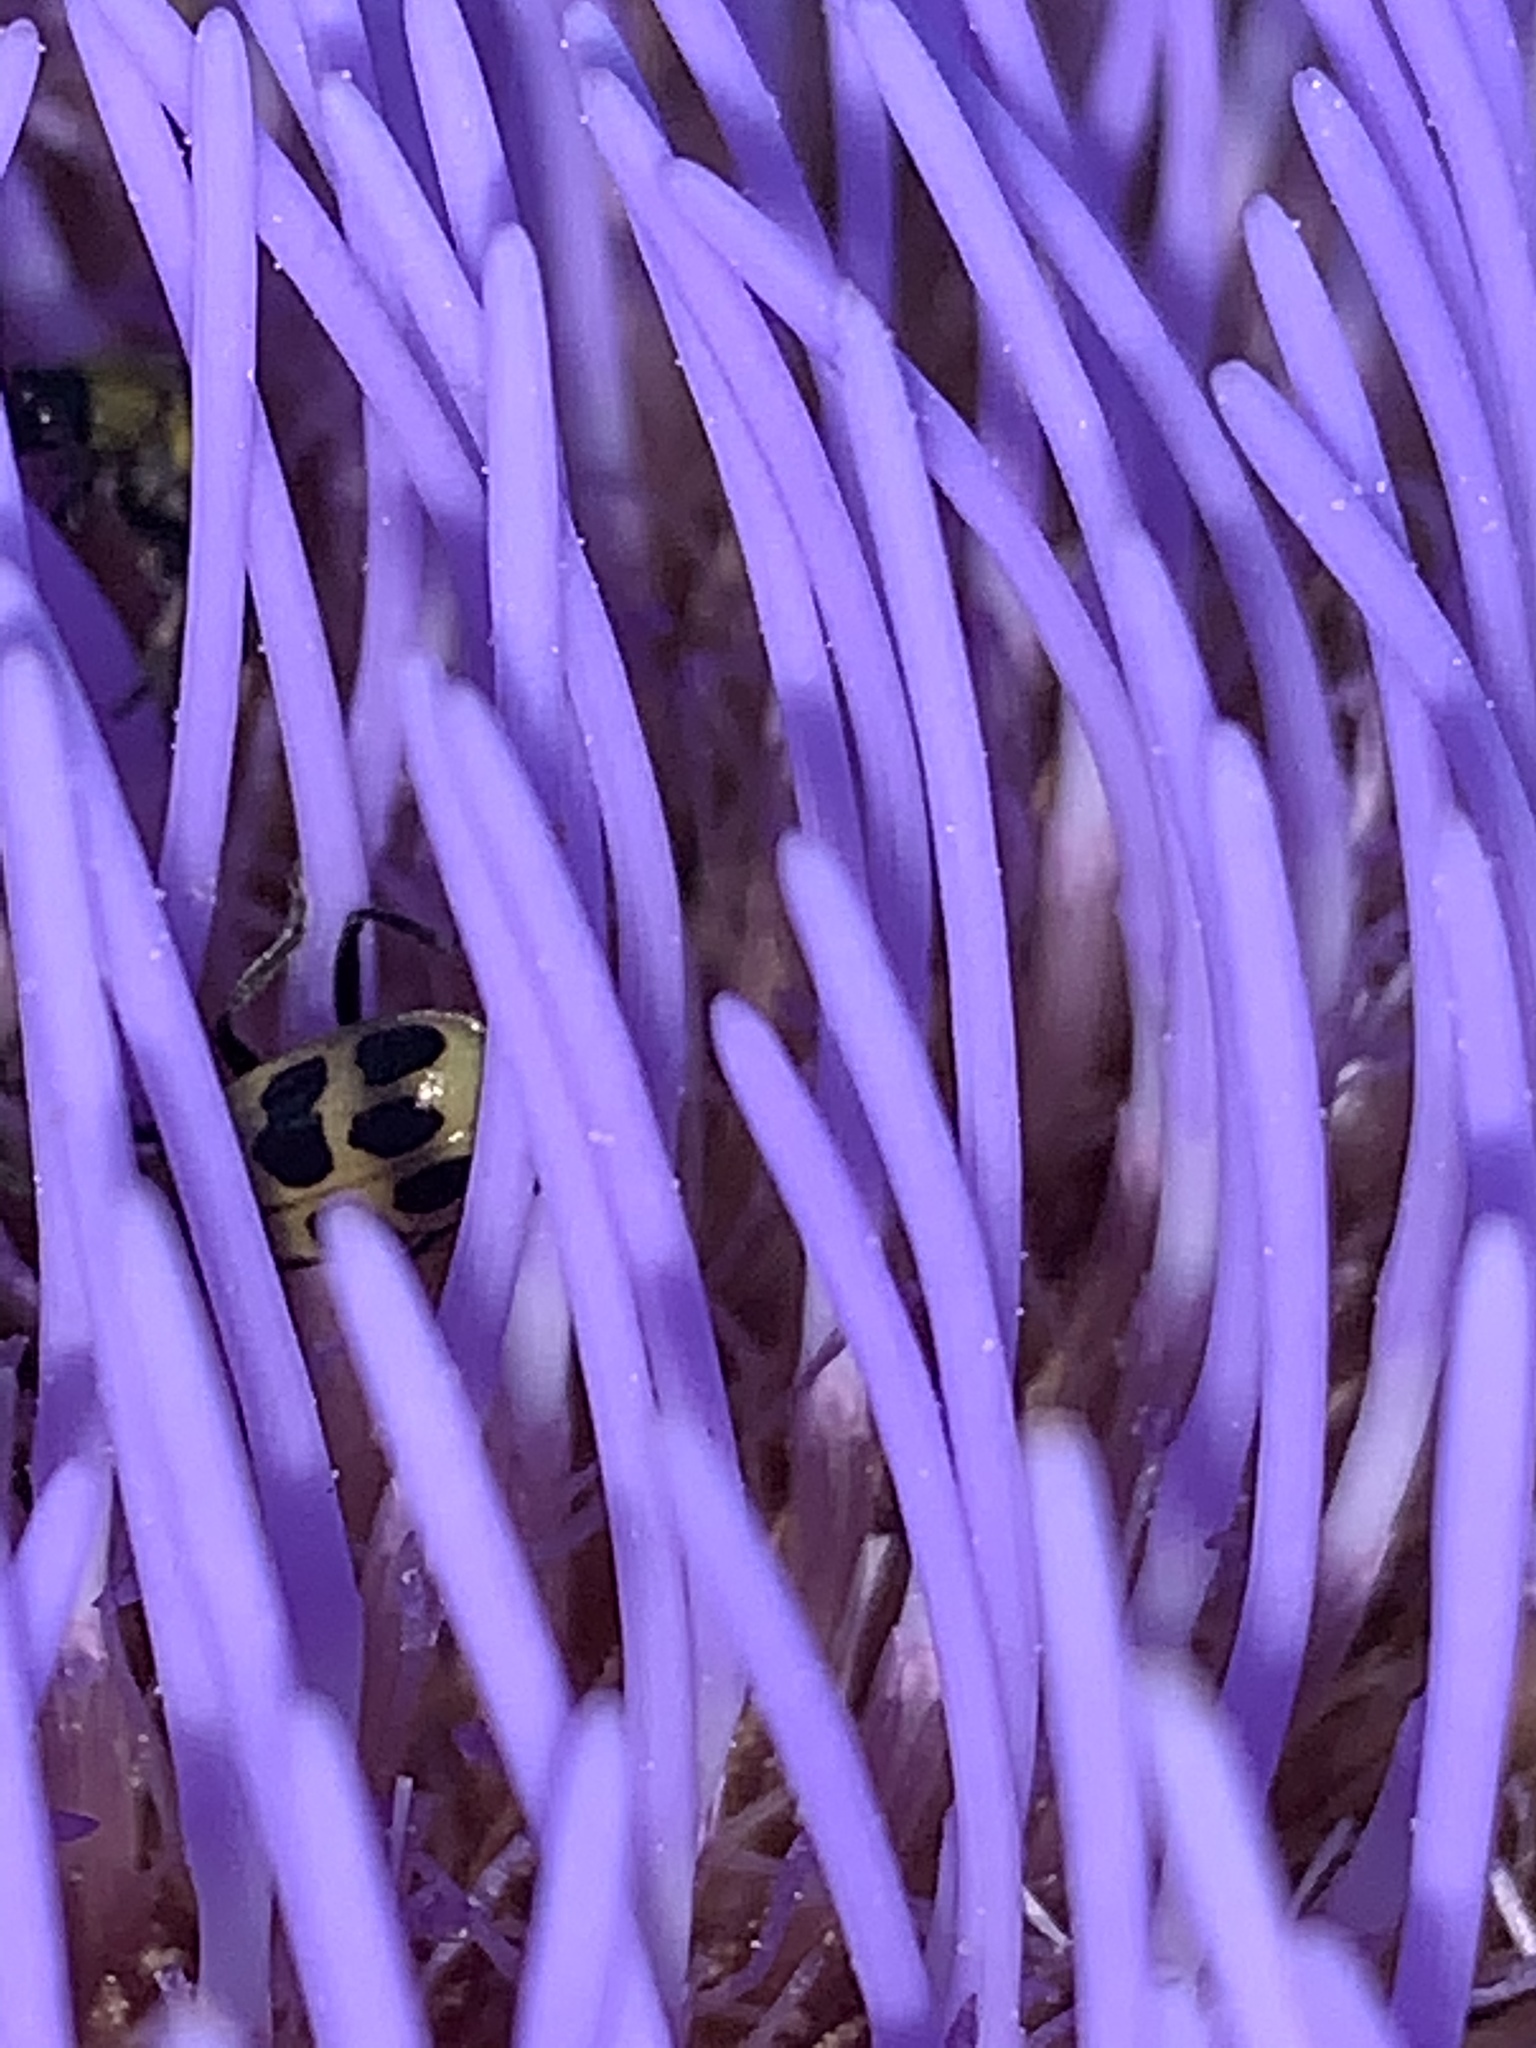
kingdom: Animalia
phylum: Arthropoda
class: Insecta
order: Coleoptera
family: Chrysomelidae
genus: Diabrotica
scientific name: Diabrotica undecimpunctata
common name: Spotted cucumber beetle
